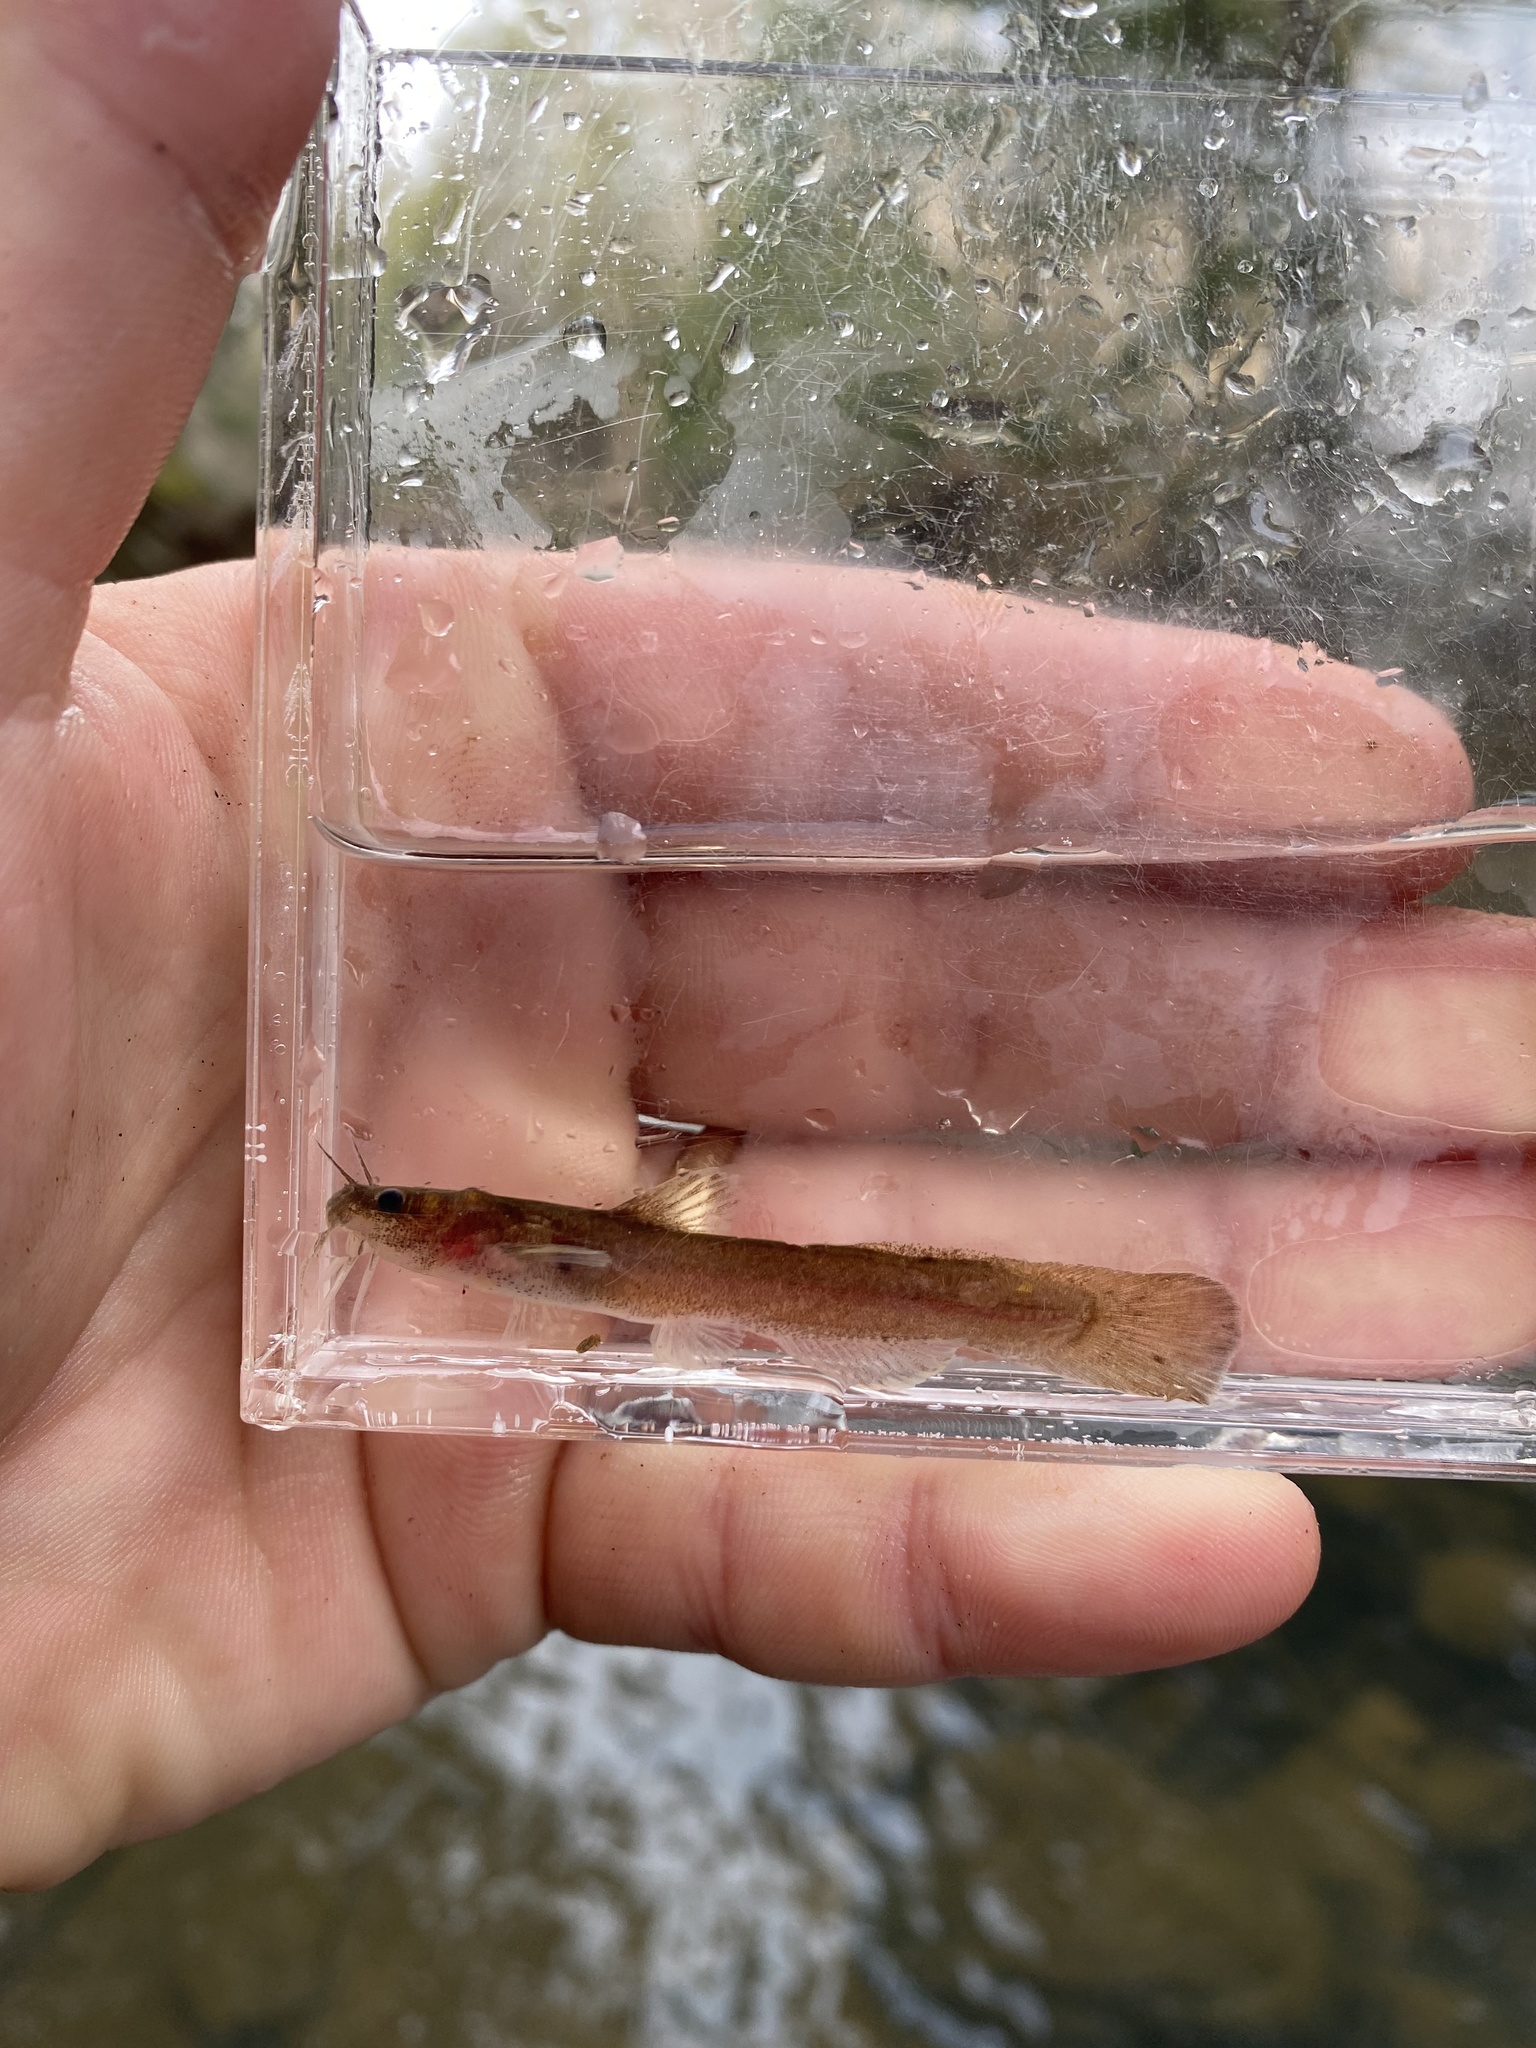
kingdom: Animalia
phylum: Chordata
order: Siluriformes
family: Ictaluridae
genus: Noturus
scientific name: Noturus leptacanthus
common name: Speckled madtom
